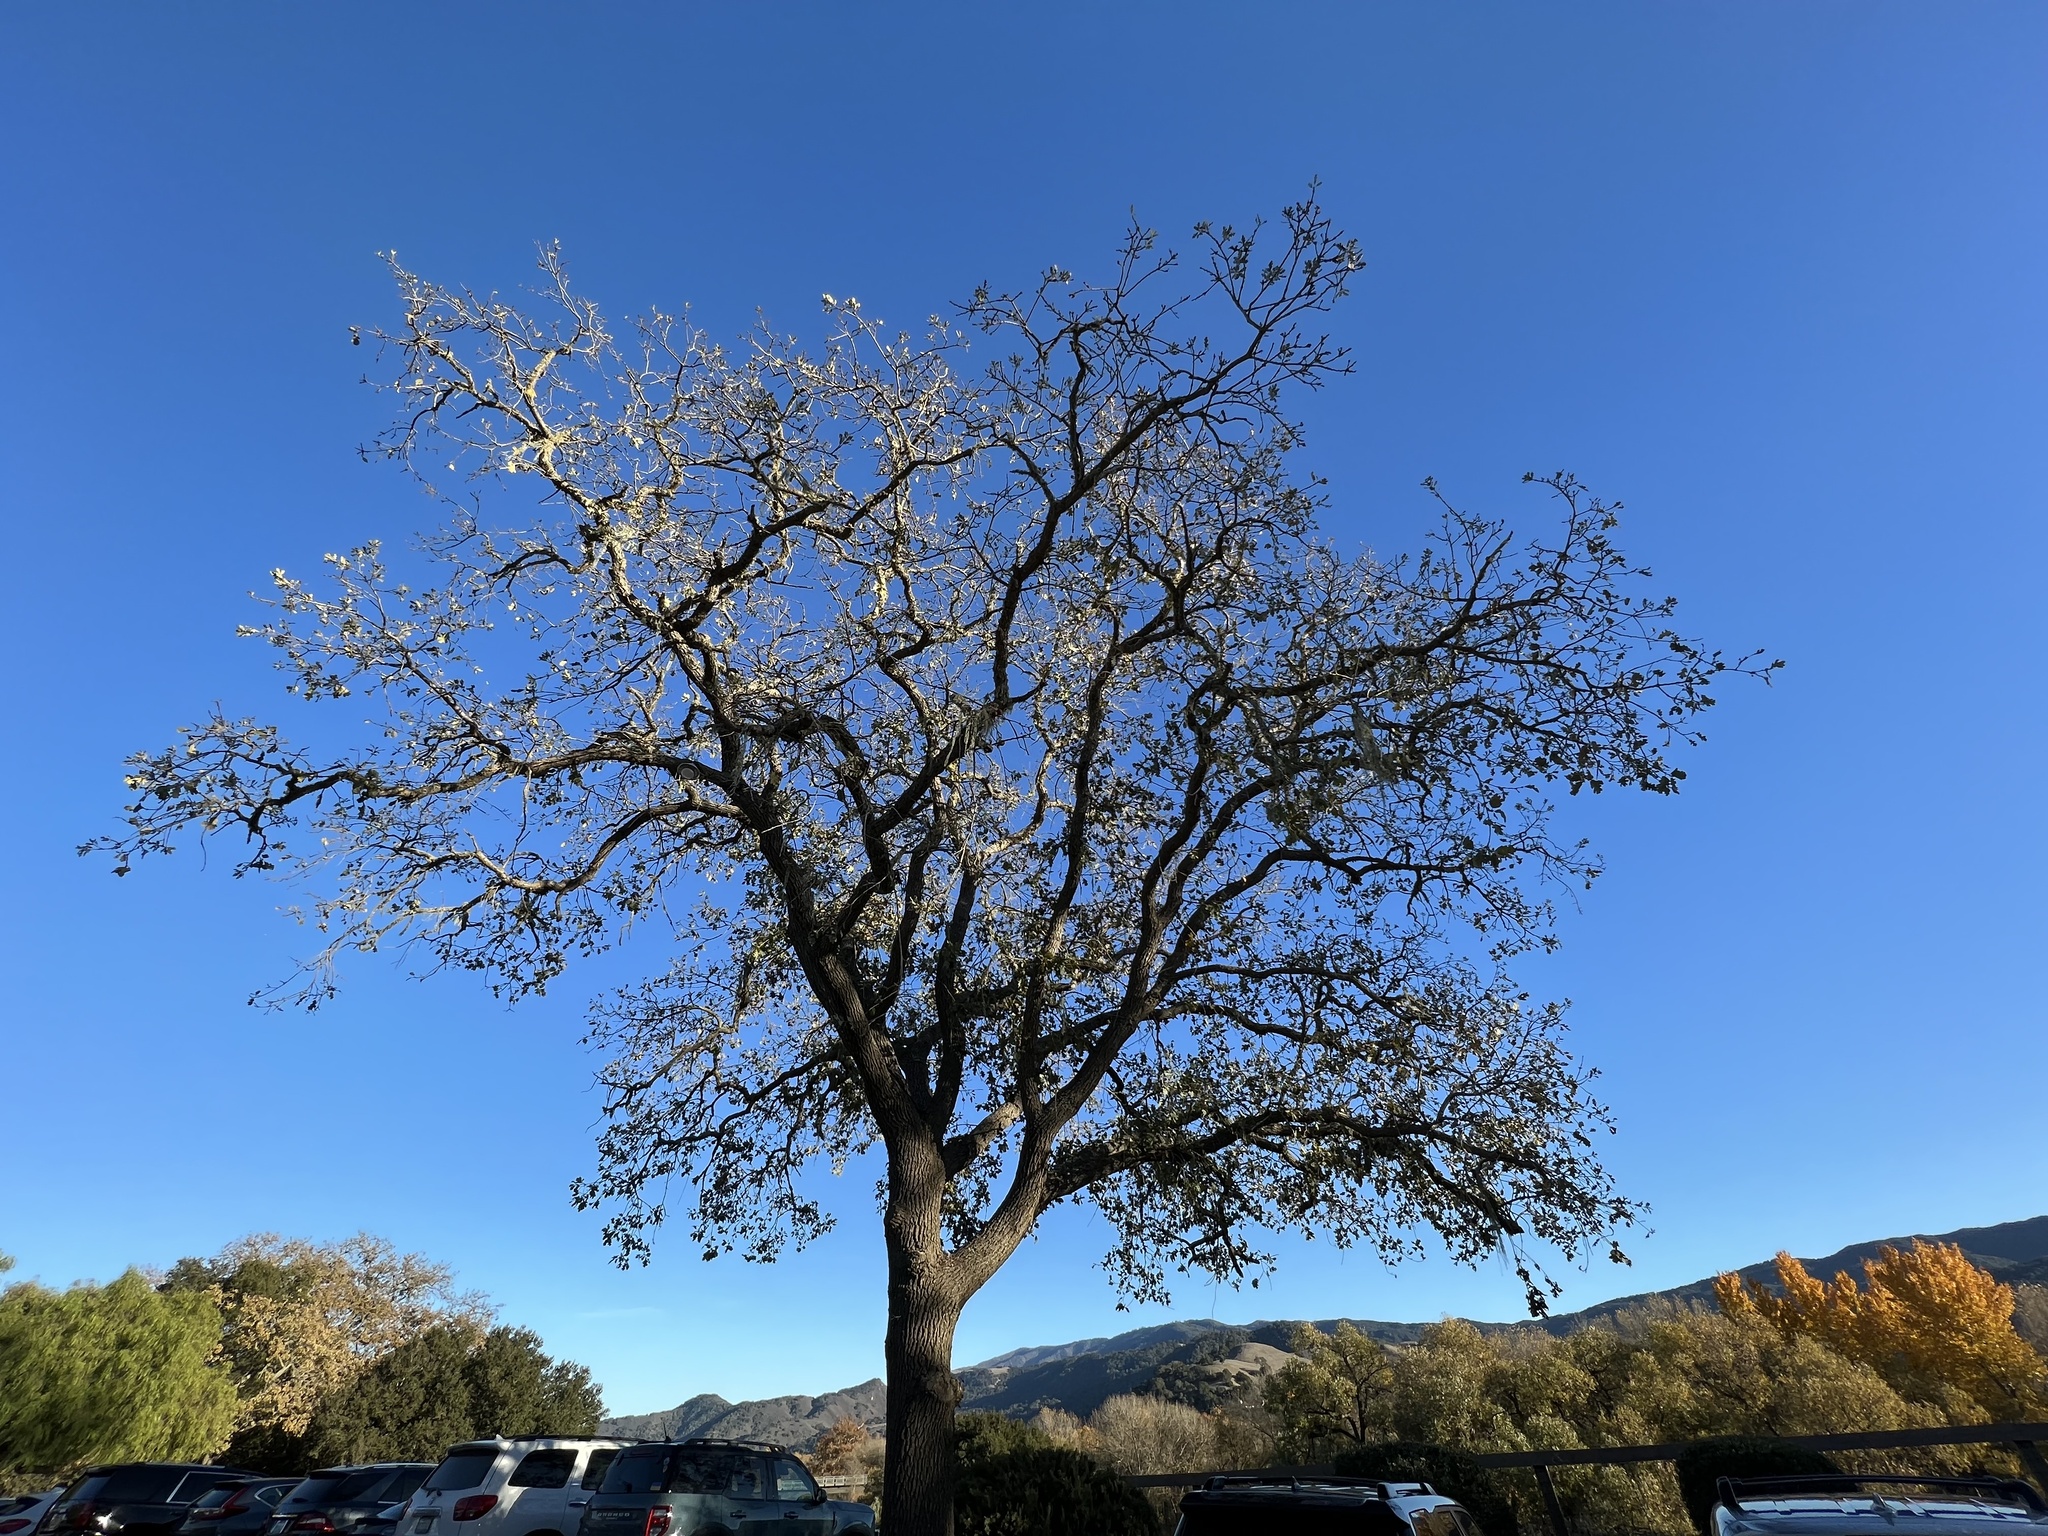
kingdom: Plantae
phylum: Tracheophyta
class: Magnoliopsida
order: Fagales
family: Fagaceae
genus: Quercus
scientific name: Quercus lobata
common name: Valley oak
